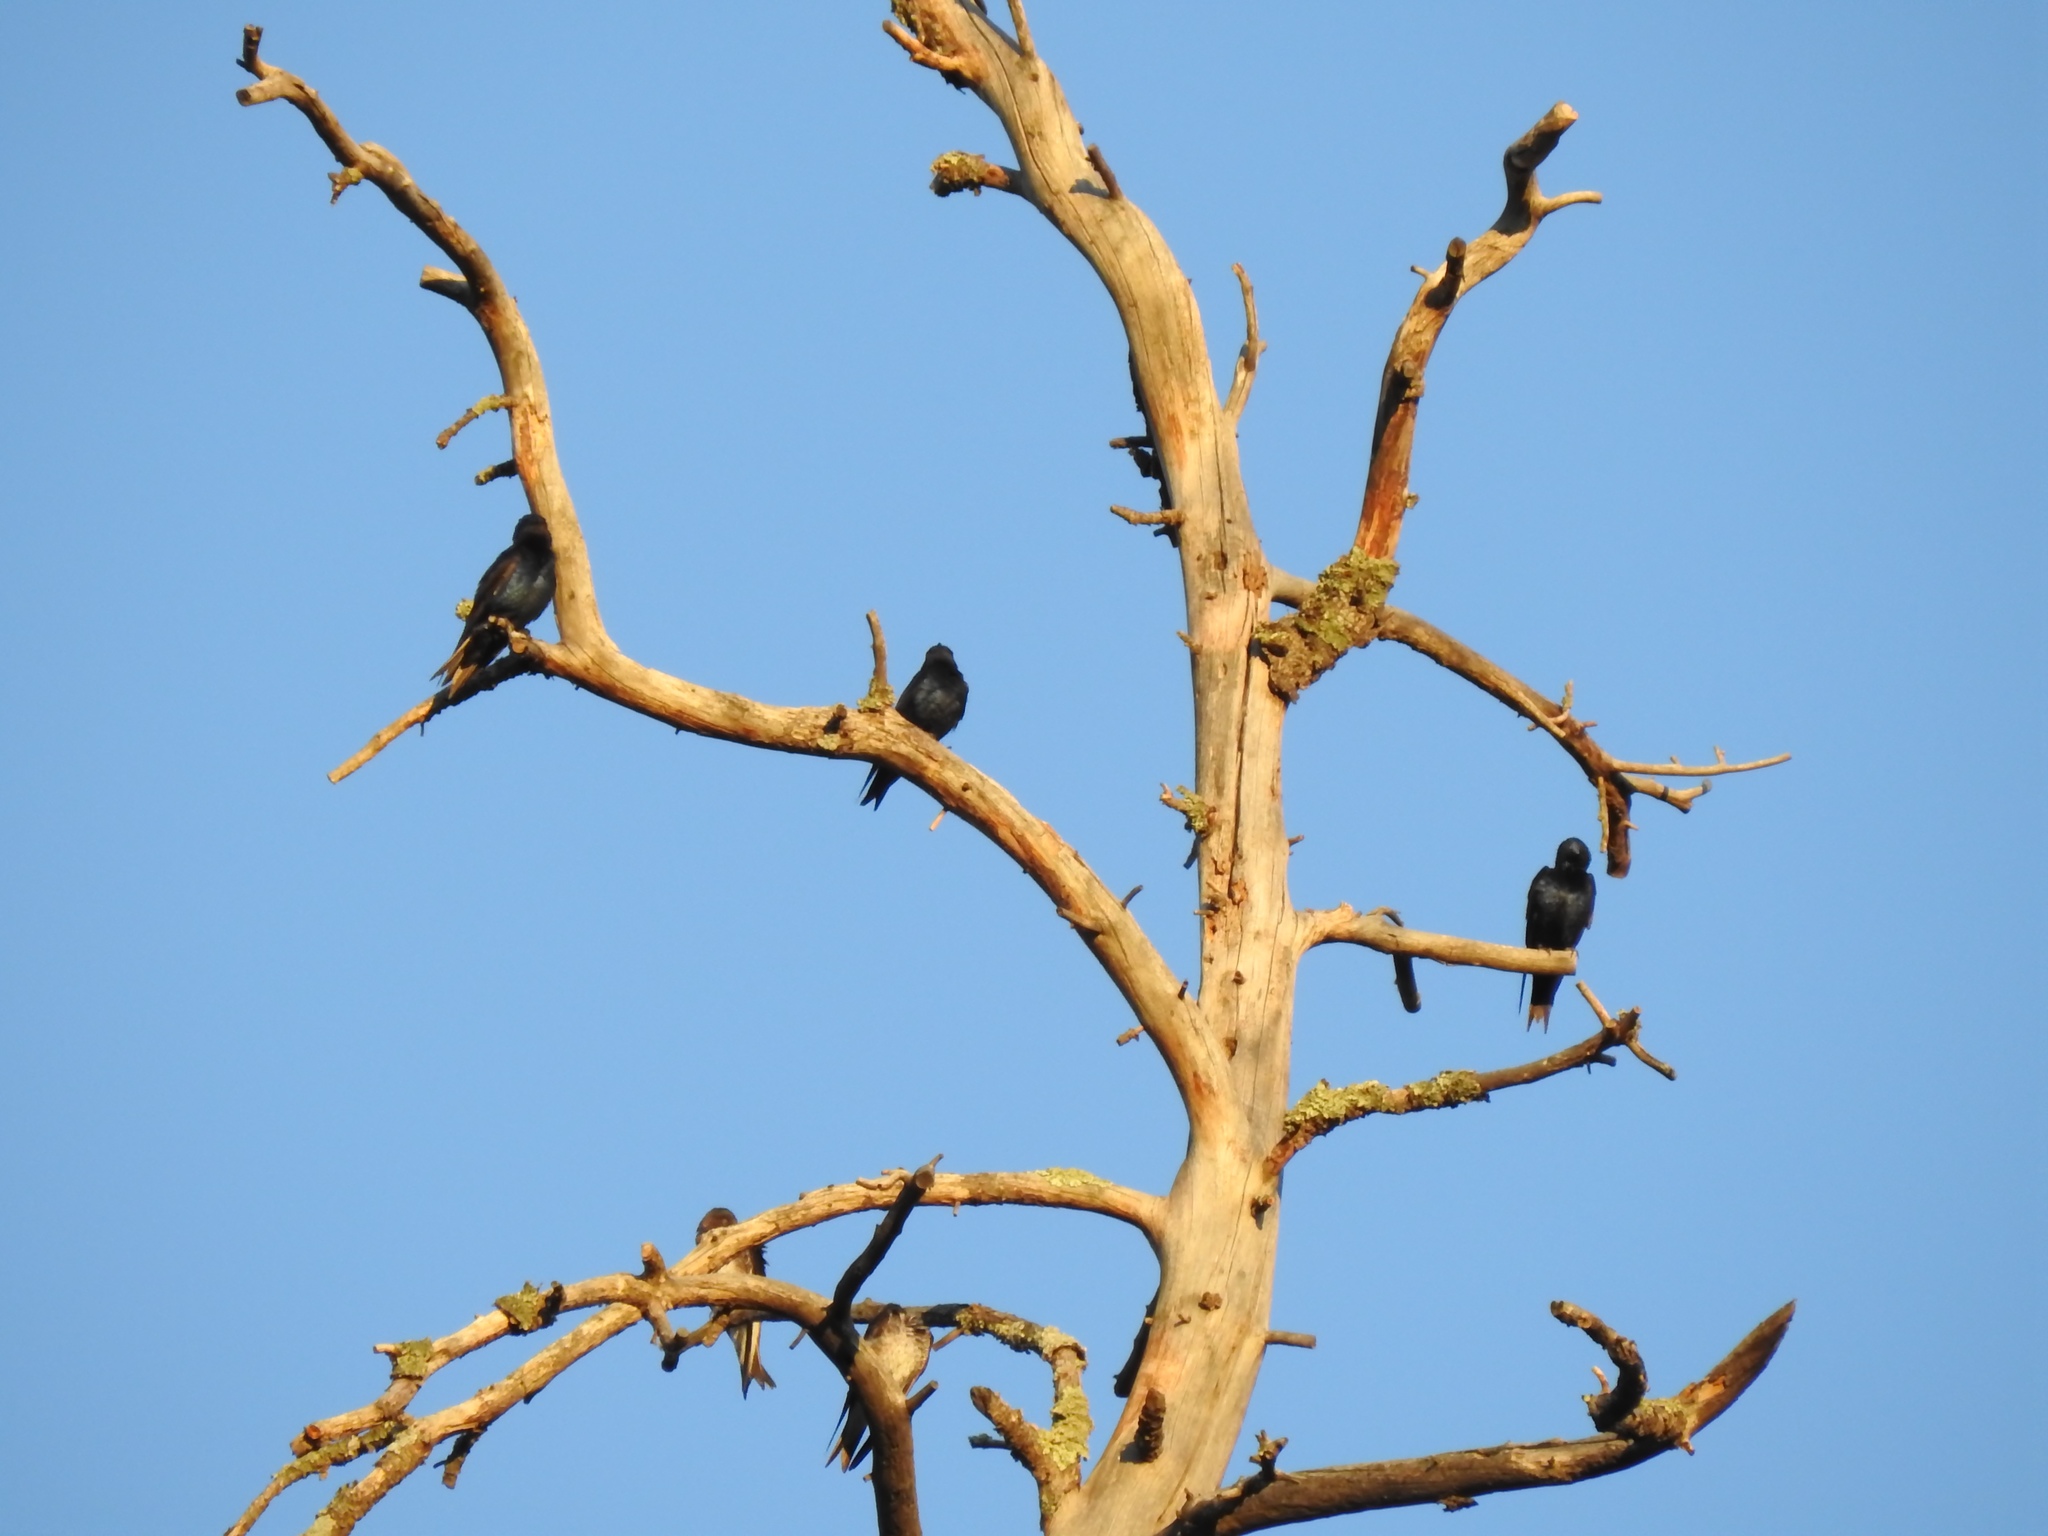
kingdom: Animalia
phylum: Chordata
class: Aves
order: Passeriformes
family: Hirundinidae
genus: Progne
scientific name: Progne subis
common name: Purple martin
